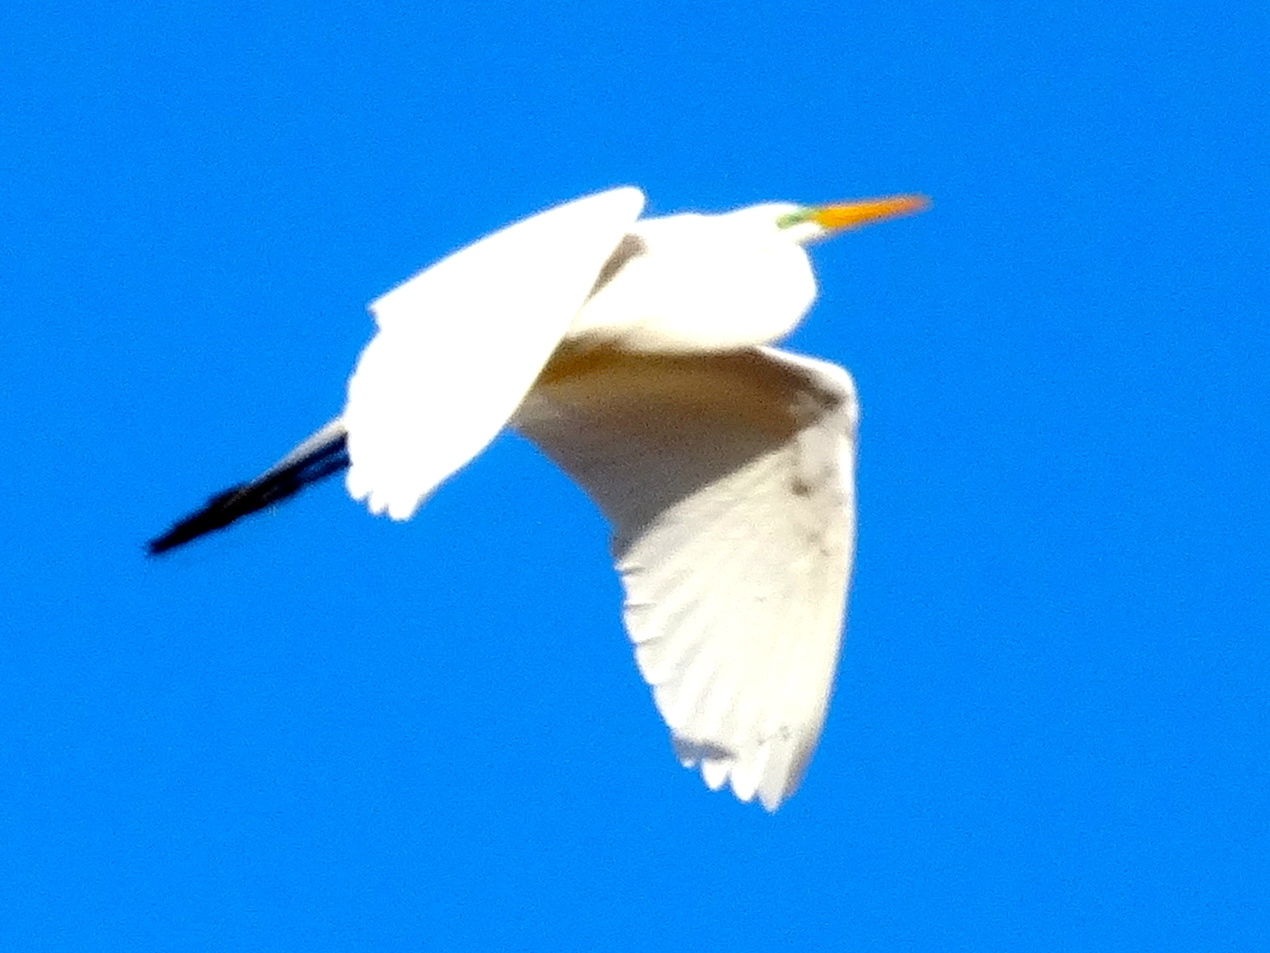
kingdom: Animalia
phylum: Chordata
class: Aves
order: Pelecaniformes
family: Ardeidae
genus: Ardea
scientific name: Ardea alba
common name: Great egret
